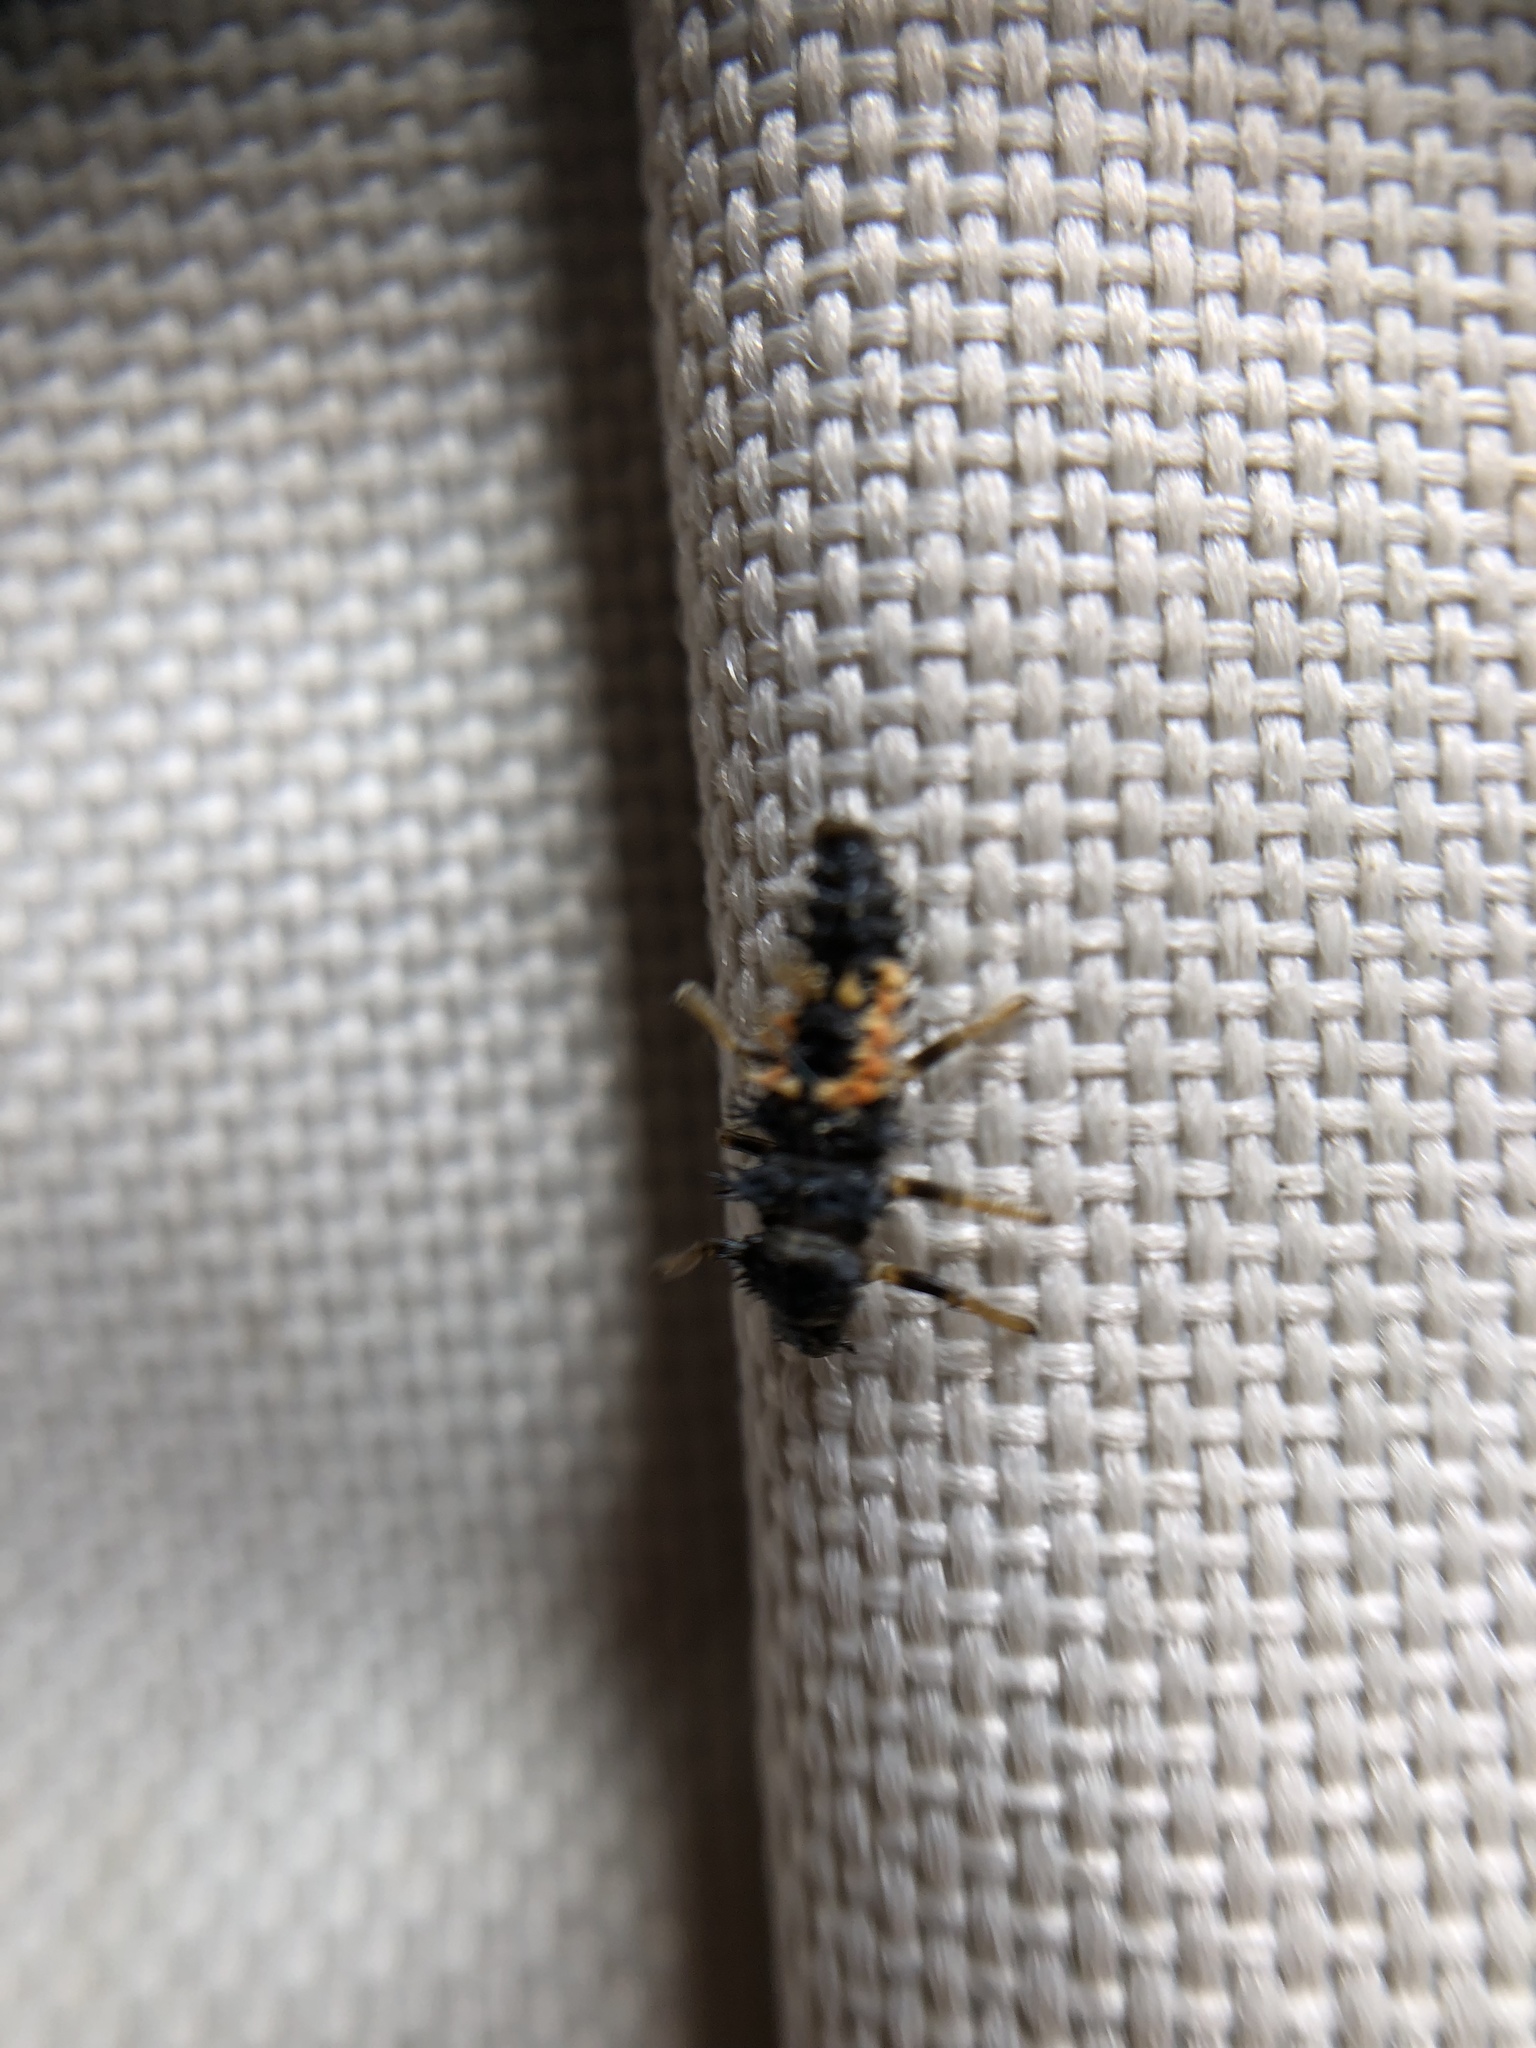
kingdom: Animalia
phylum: Arthropoda
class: Insecta
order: Coleoptera
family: Coccinellidae
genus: Harmonia
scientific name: Harmonia axyridis
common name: Harlequin ladybird
